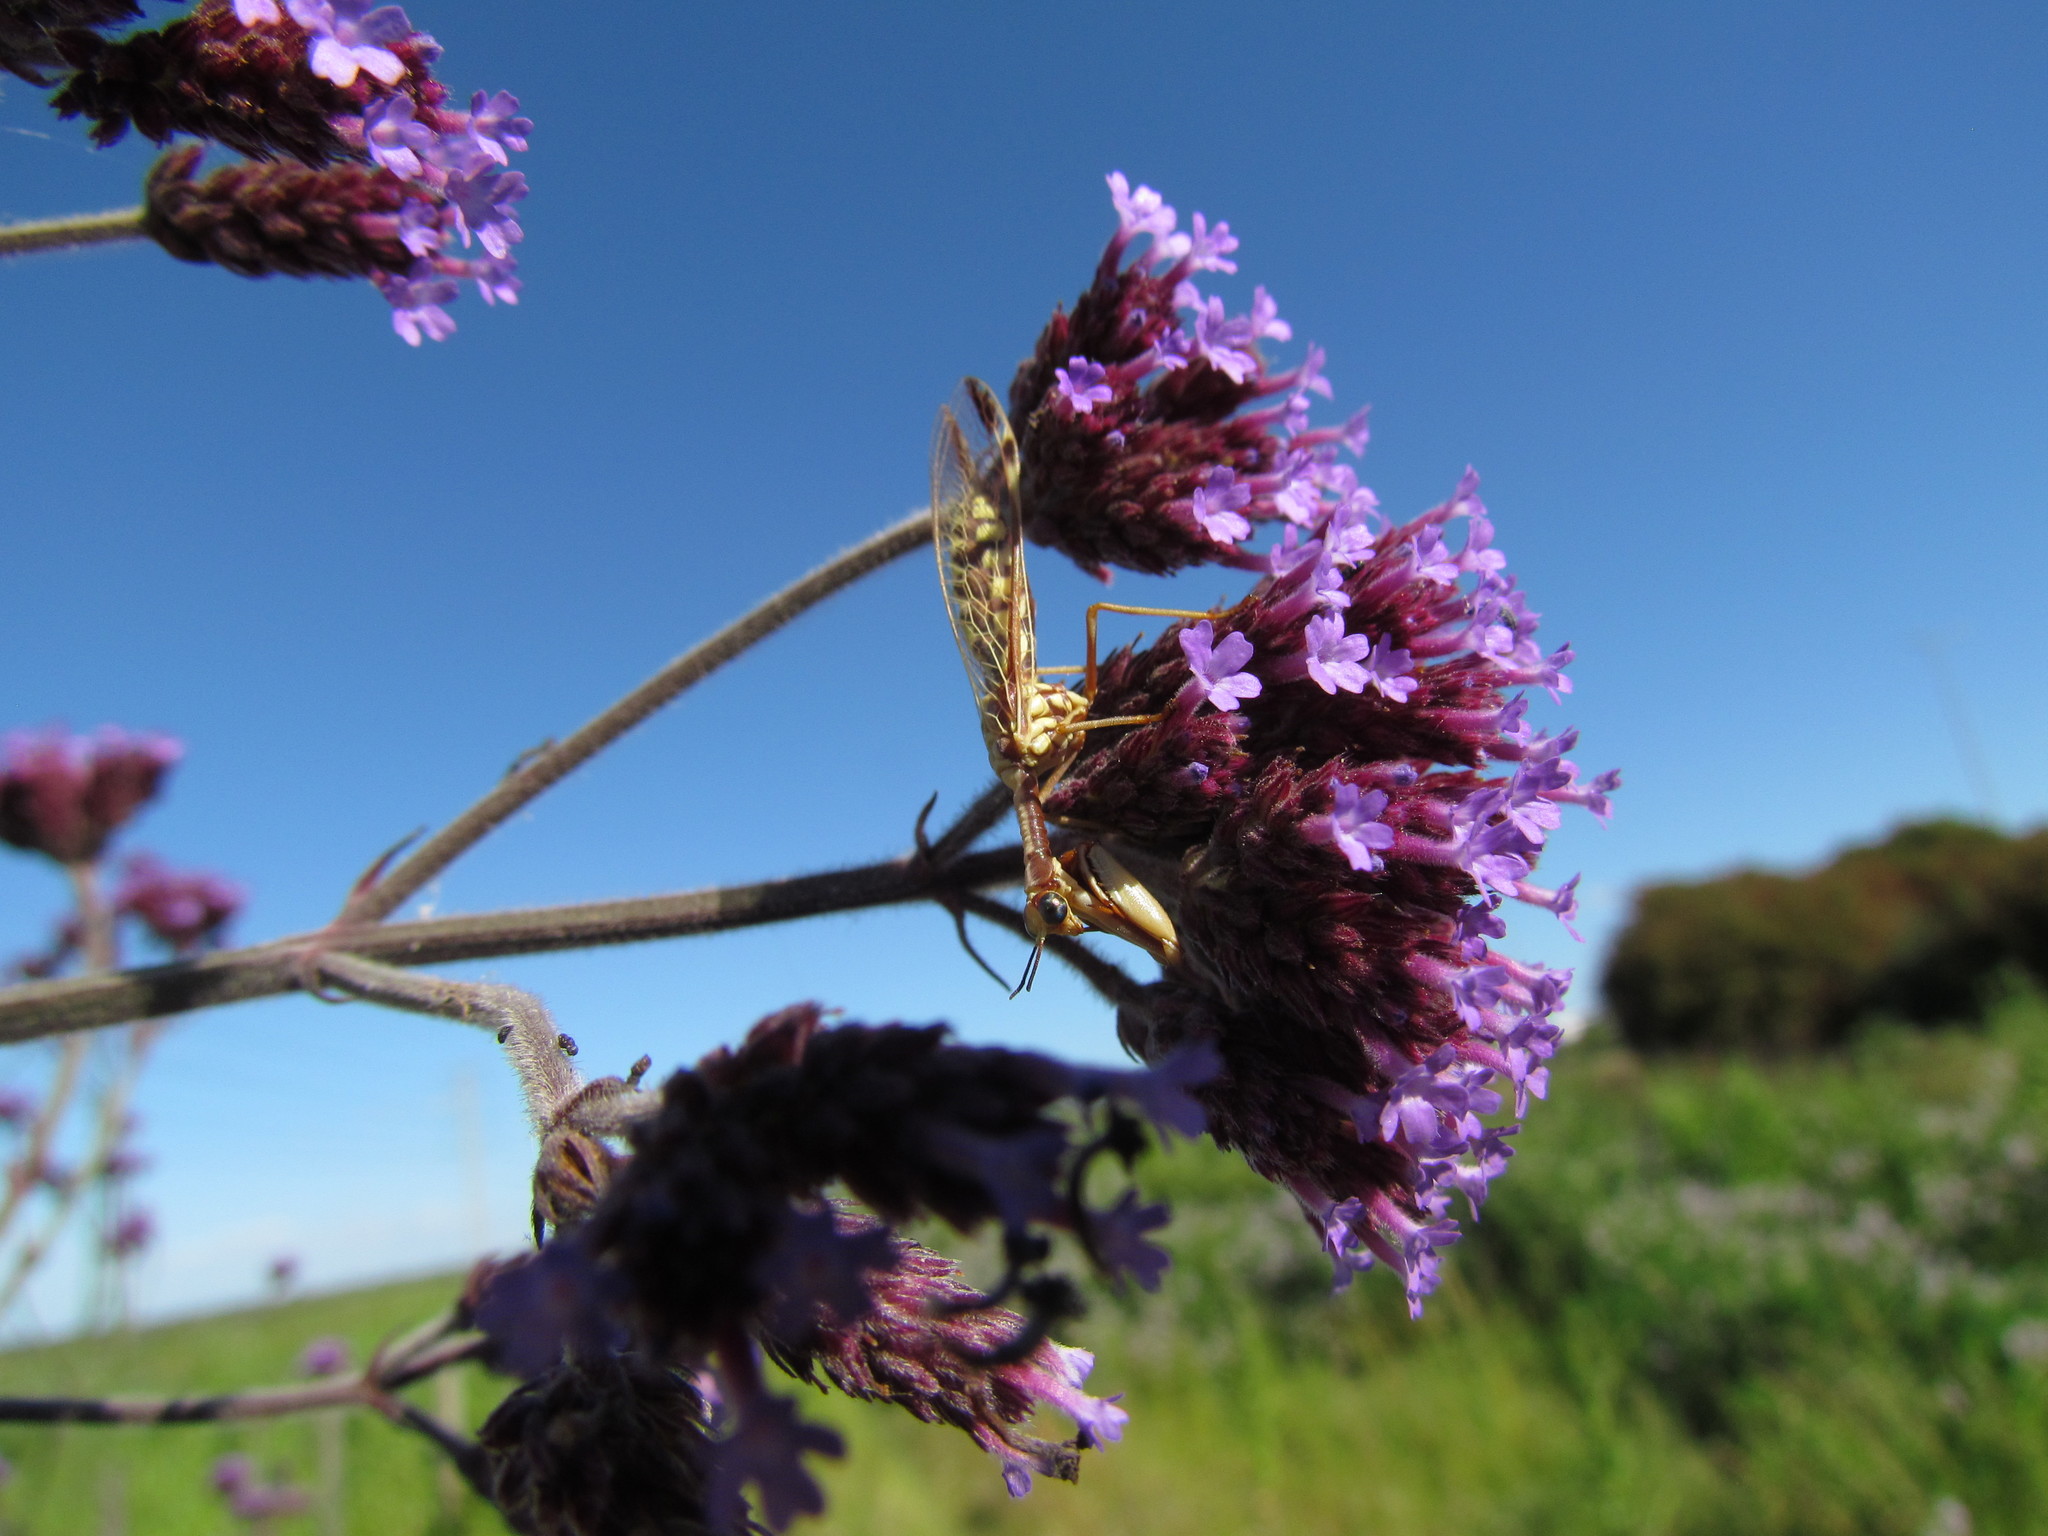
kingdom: Animalia
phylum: Arthropoda
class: Insecta
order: Neuroptera
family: Mantispidae
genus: Paramantispa
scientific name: Paramantispa prolixa
